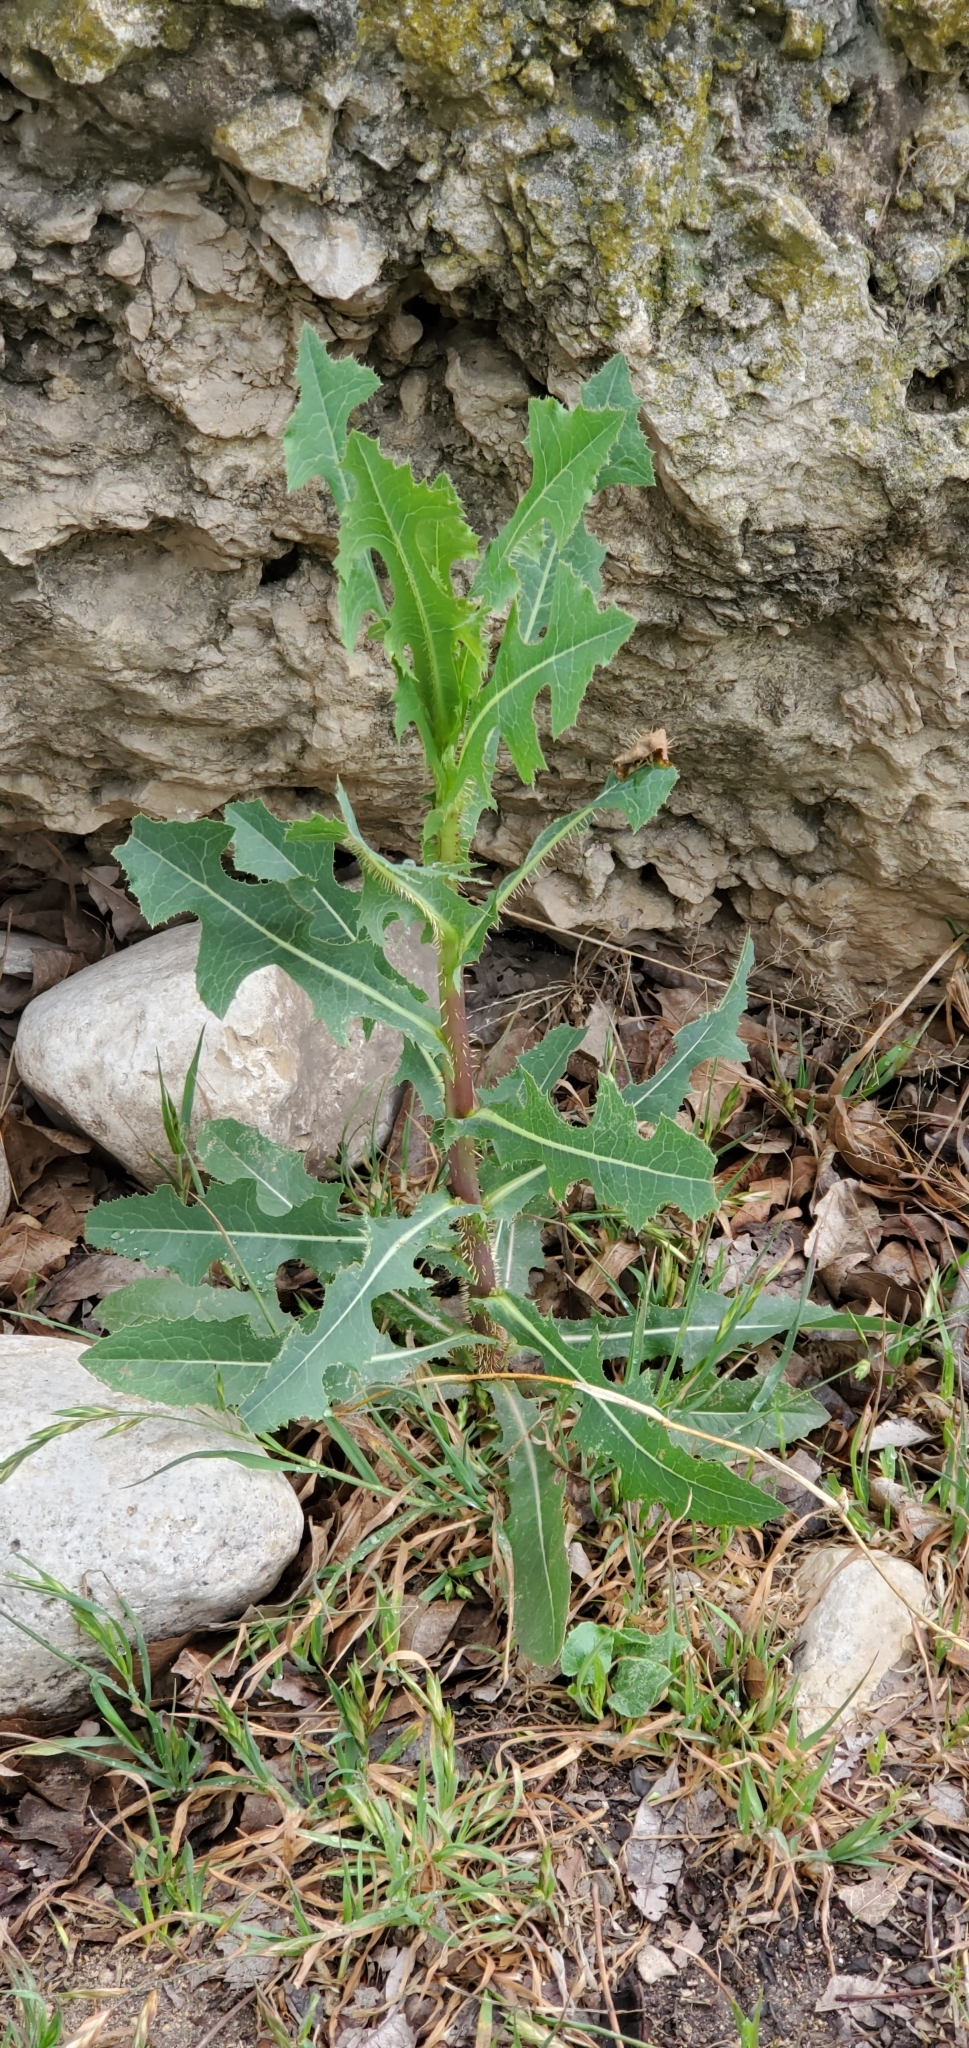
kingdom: Plantae
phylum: Tracheophyta
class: Magnoliopsida
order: Asterales
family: Asteraceae
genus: Lactuca
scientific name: Lactuca serriola
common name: Prickly lettuce
